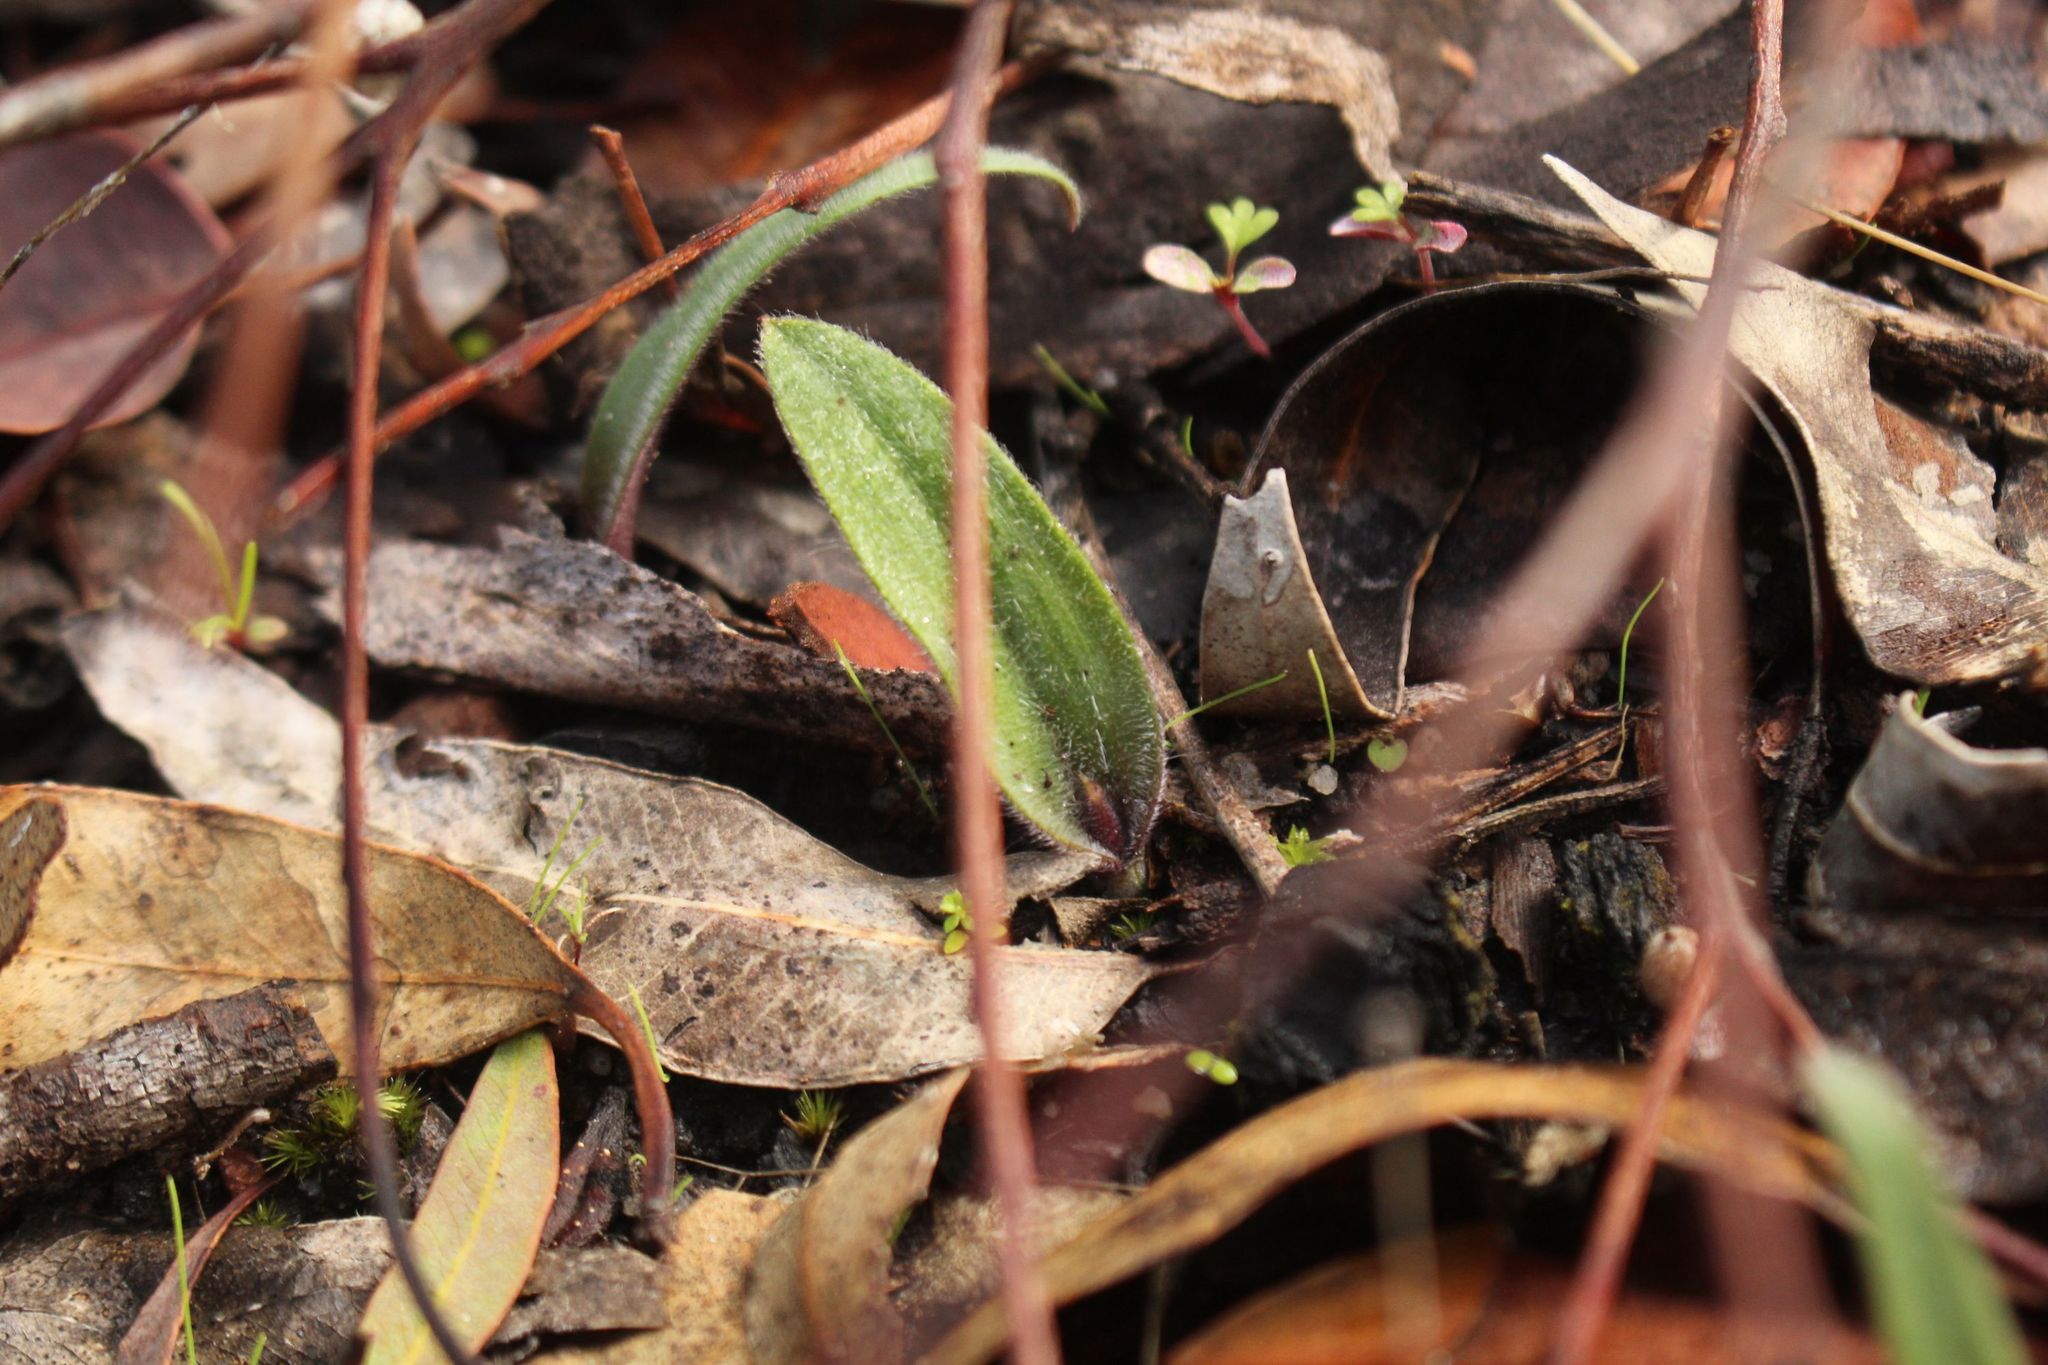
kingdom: Plantae
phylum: Tracheophyta
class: Liliopsida
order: Asparagales
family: Orchidaceae
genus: Caladenia
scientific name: Caladenia reptans
